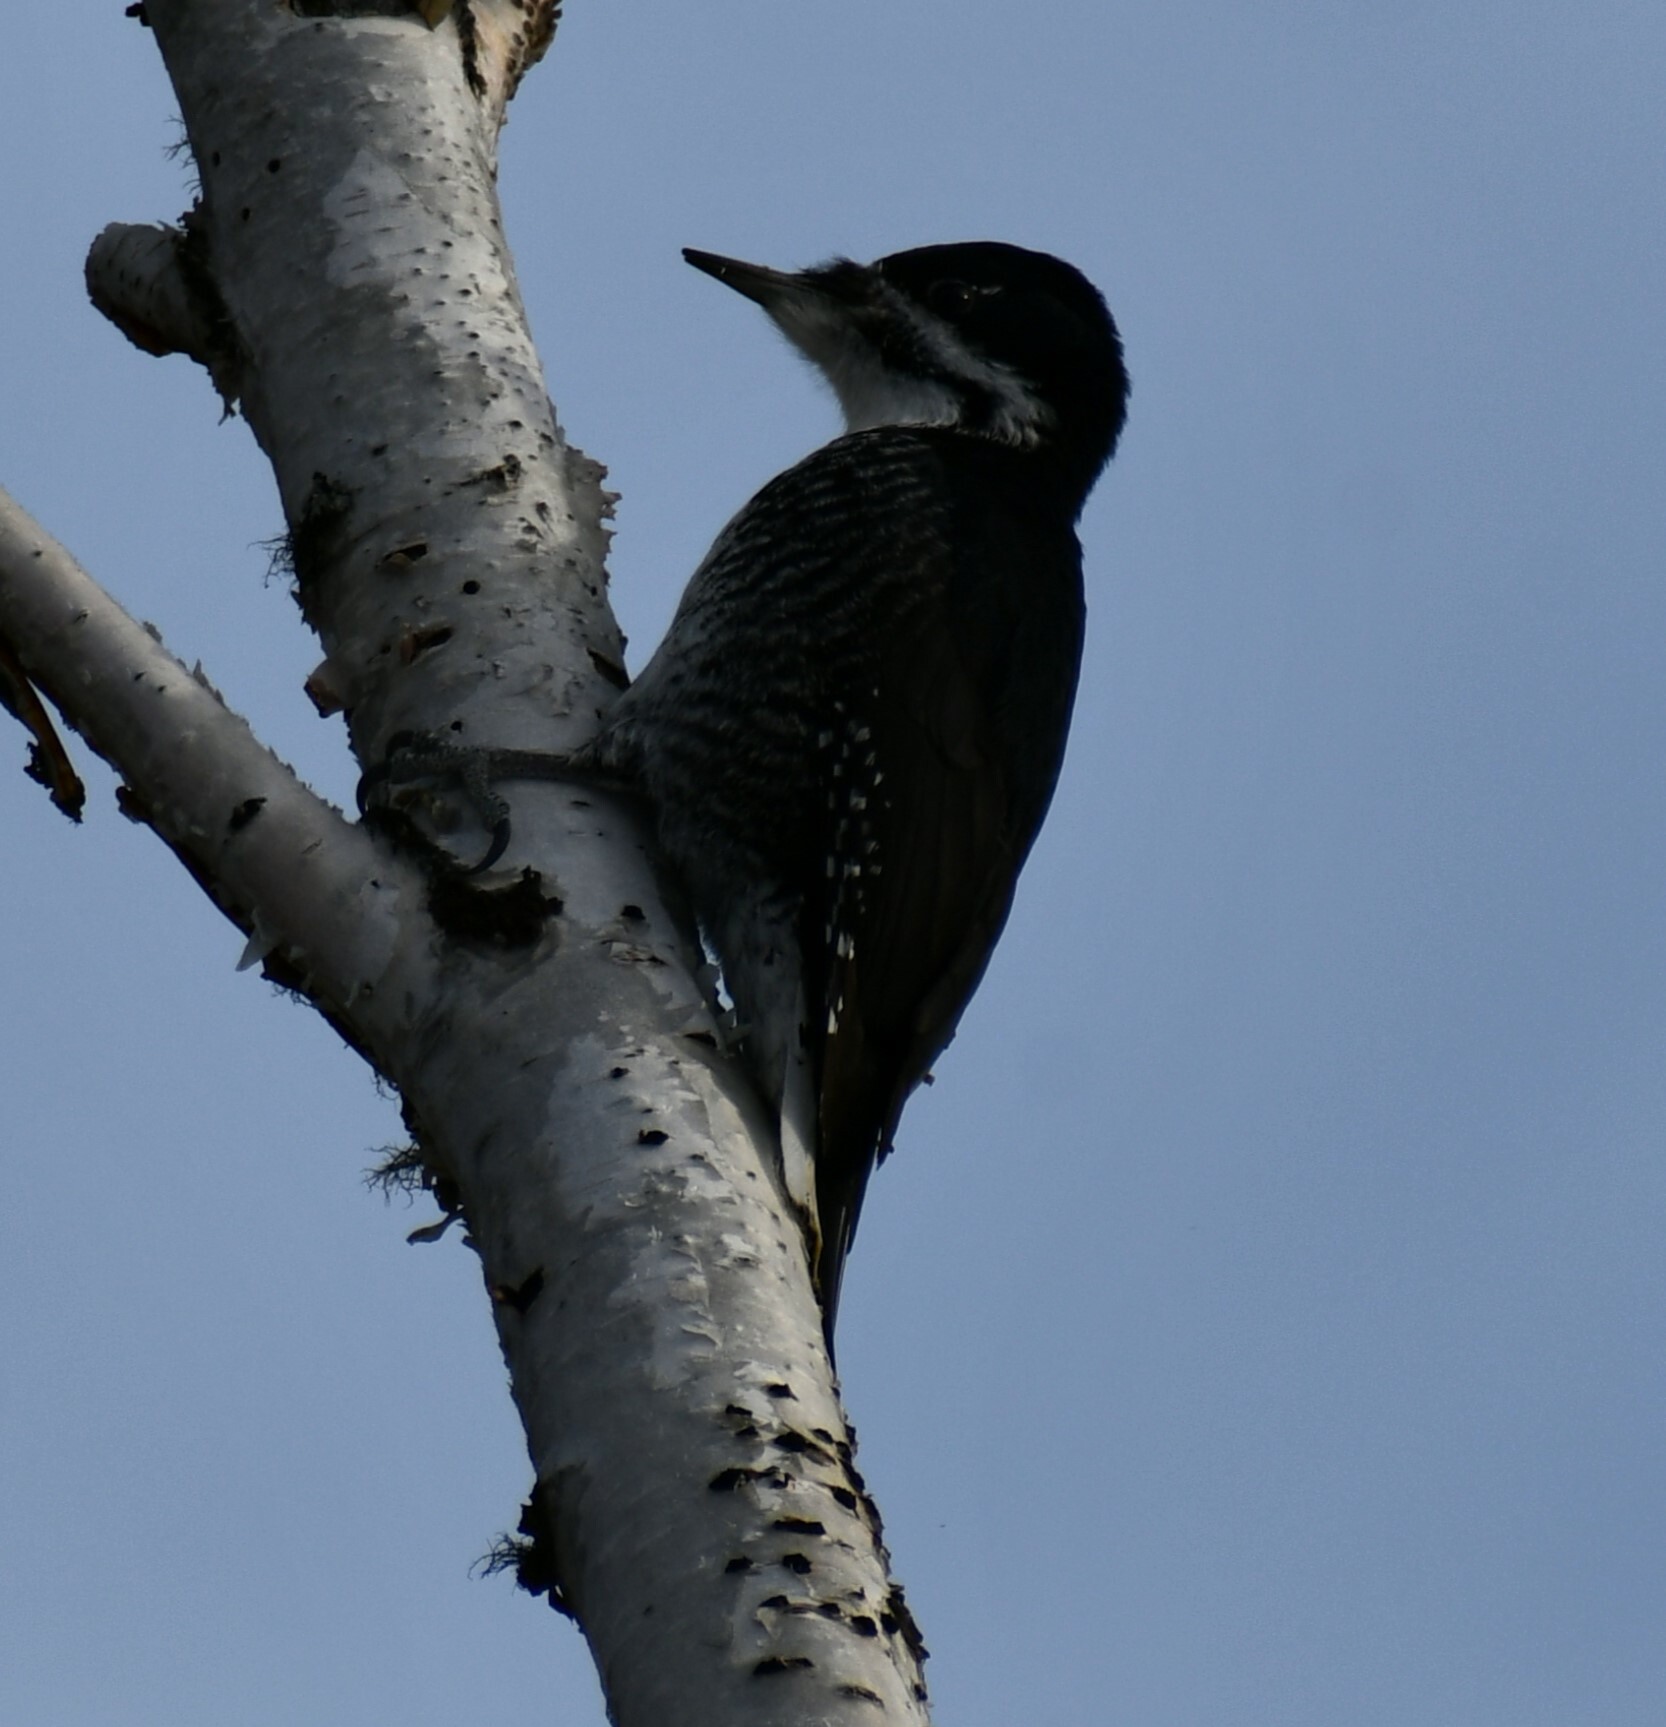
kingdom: Animalia
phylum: Chordata
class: Aves
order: Piciformes
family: Picidae
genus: Picoides
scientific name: Picoides arcticus
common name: Black-backed woodpecker
